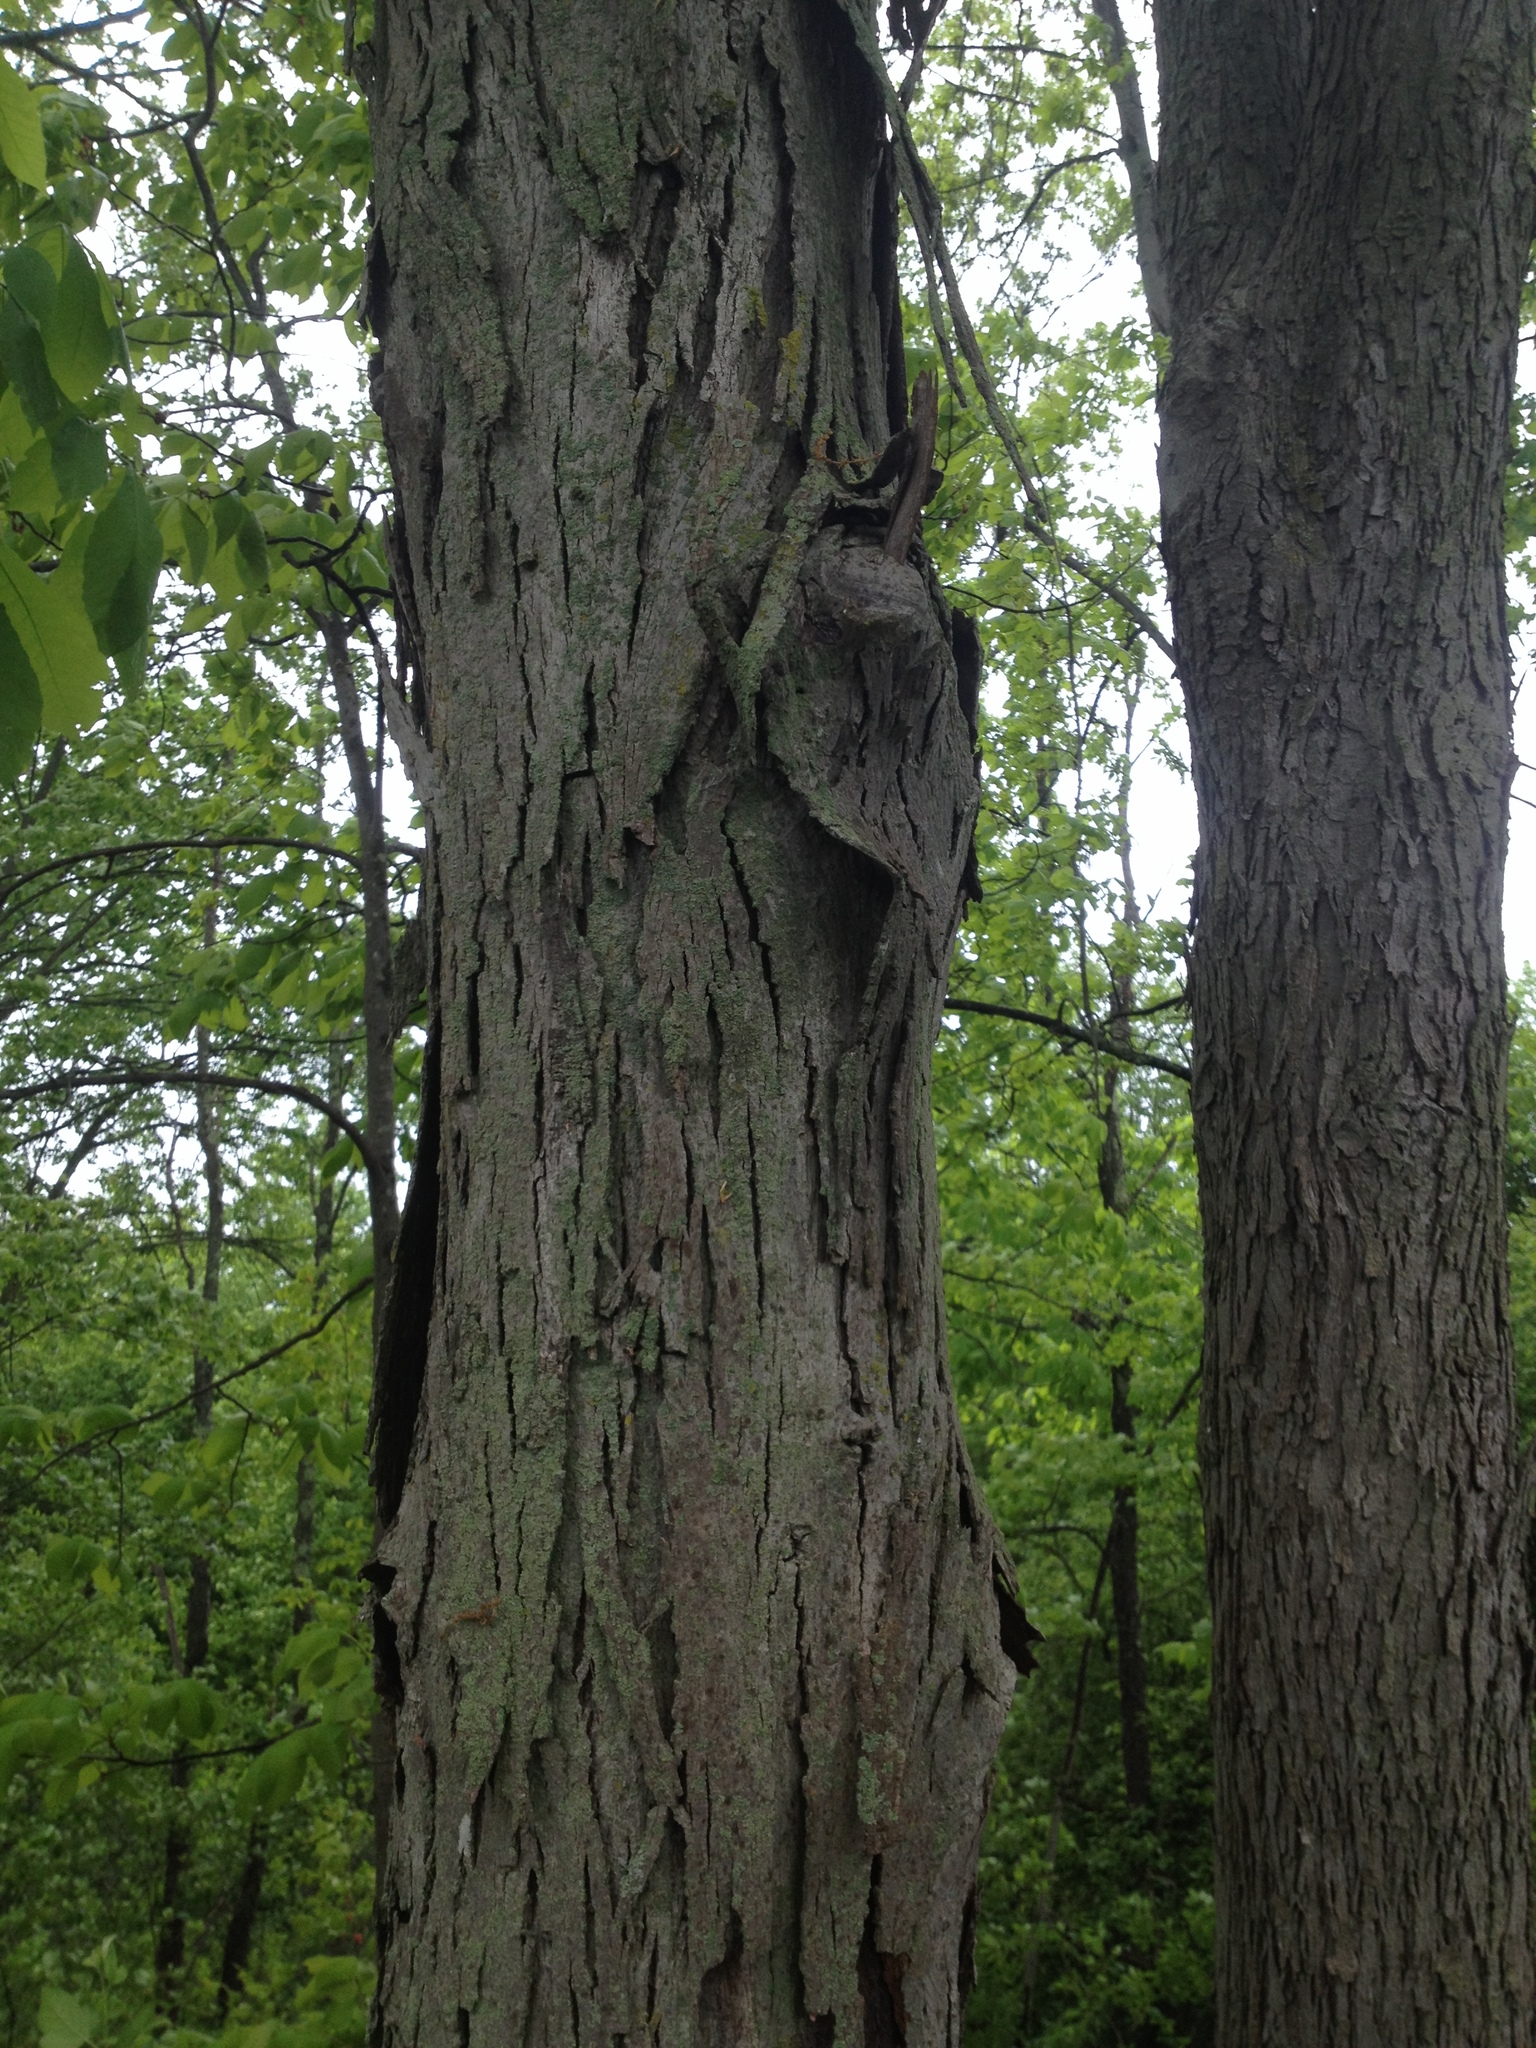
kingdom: Plantae
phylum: Tracheophyta
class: Magnoliopsida
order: Fagales
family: Juglandaceae
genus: Carya
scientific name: Carya ovata
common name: Shagbark hickory
